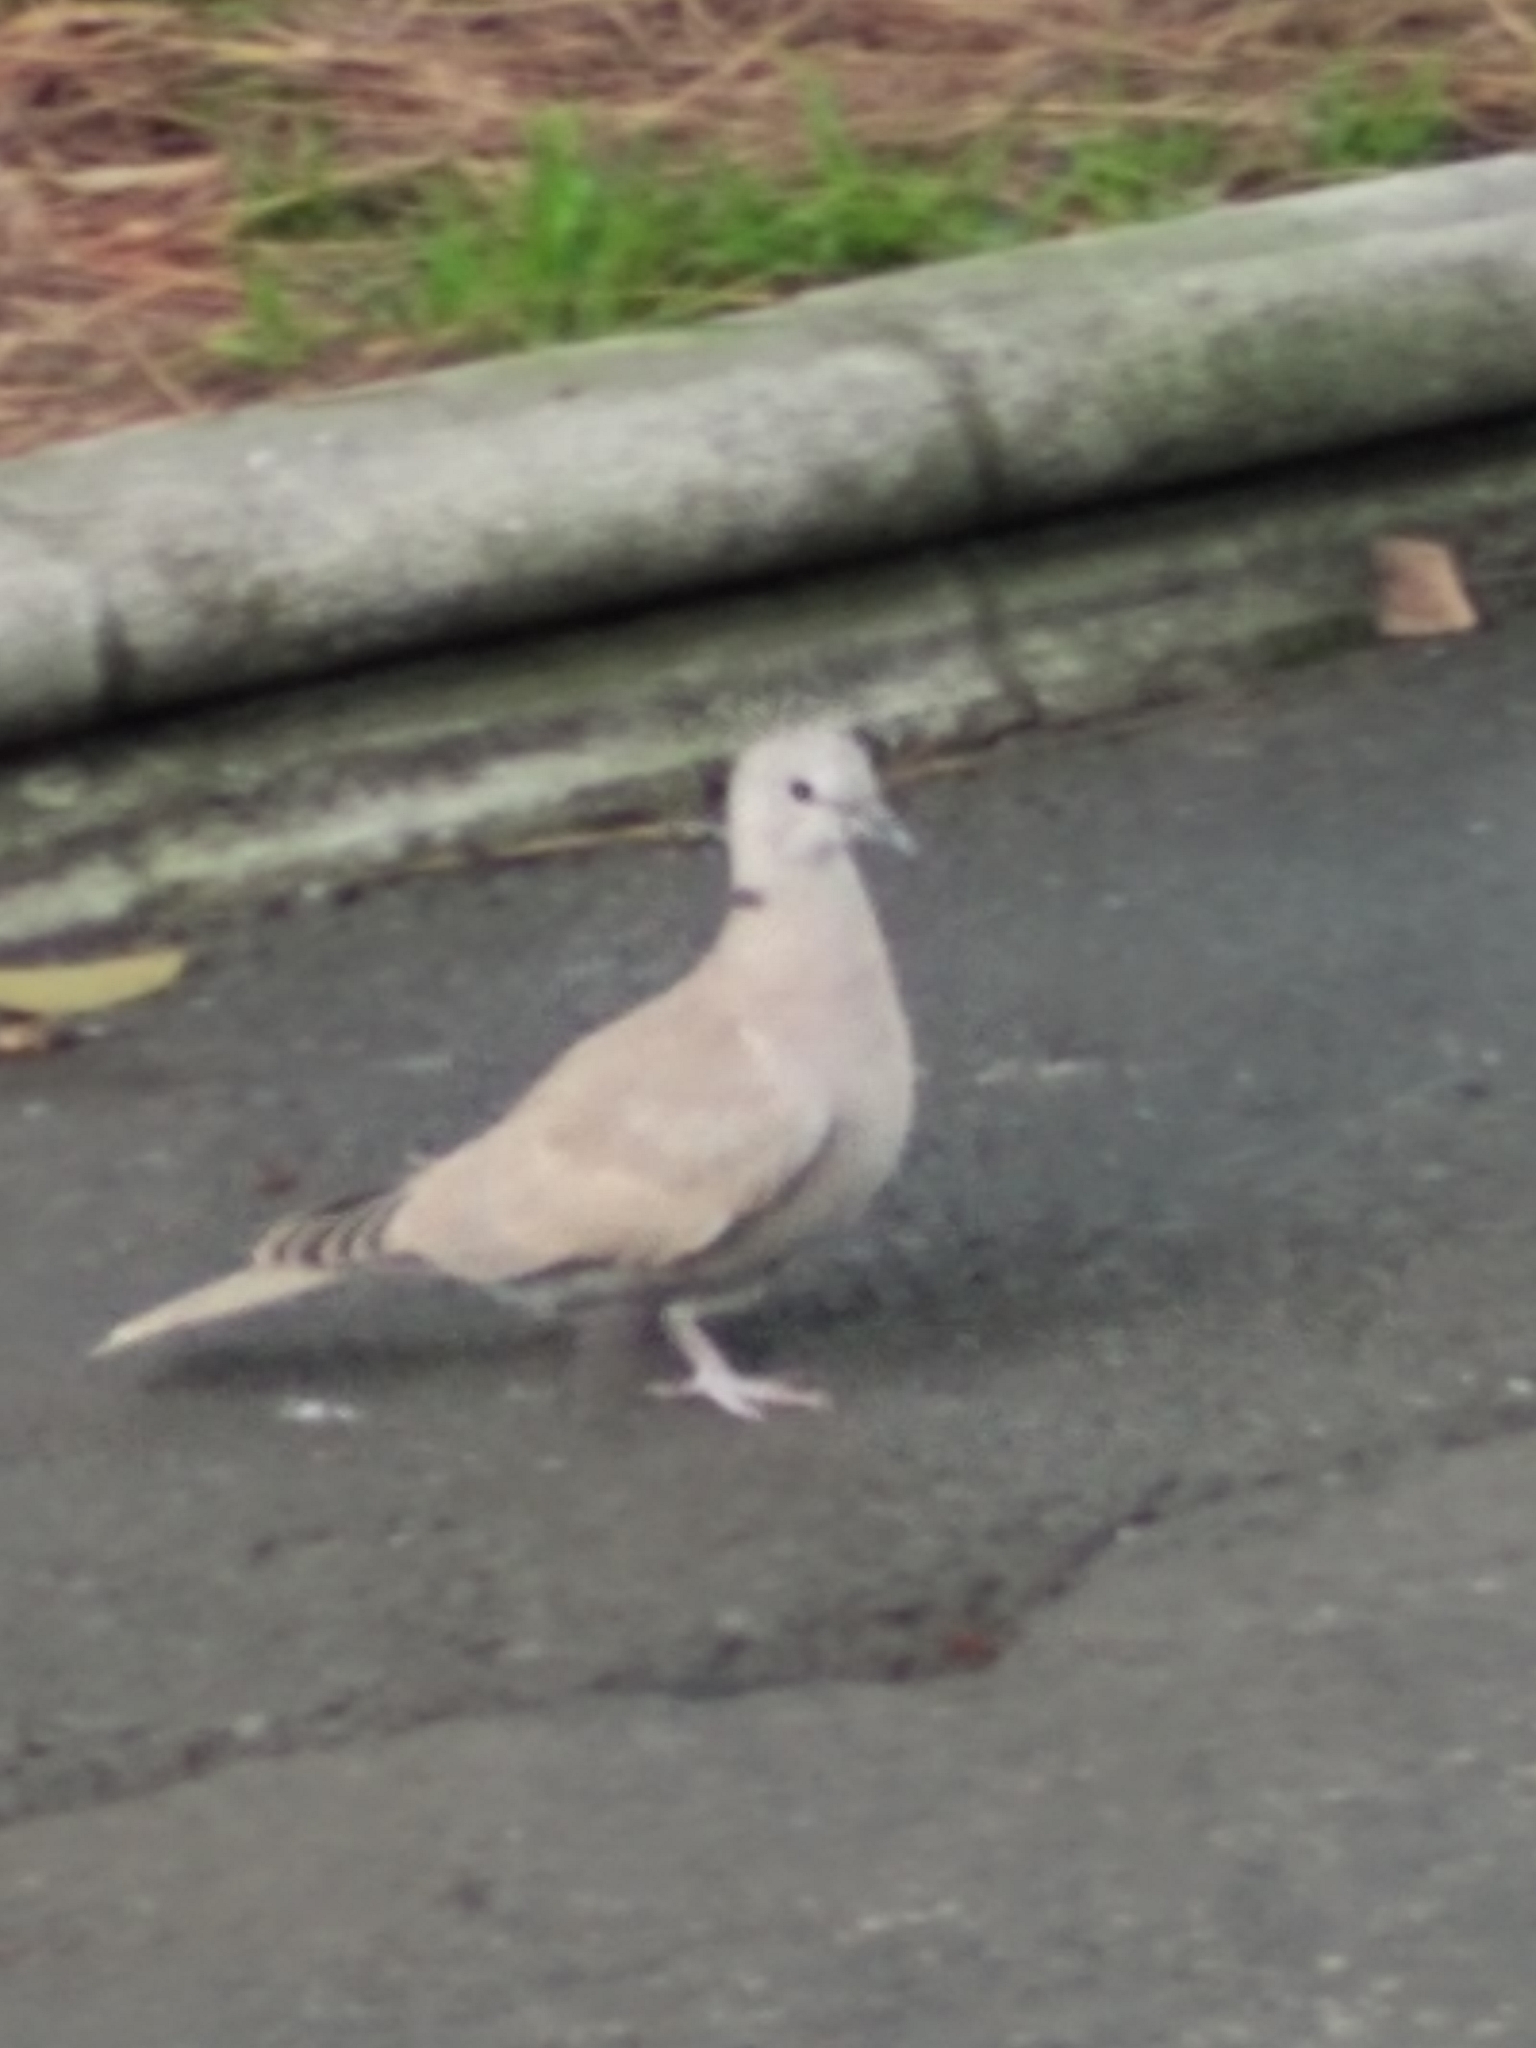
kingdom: Animalia
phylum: Chordata
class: Aves
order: Columbiformes
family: Columbidae
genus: Streptopelia
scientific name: Streptopelia decaocto
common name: Eurasian collared dove
